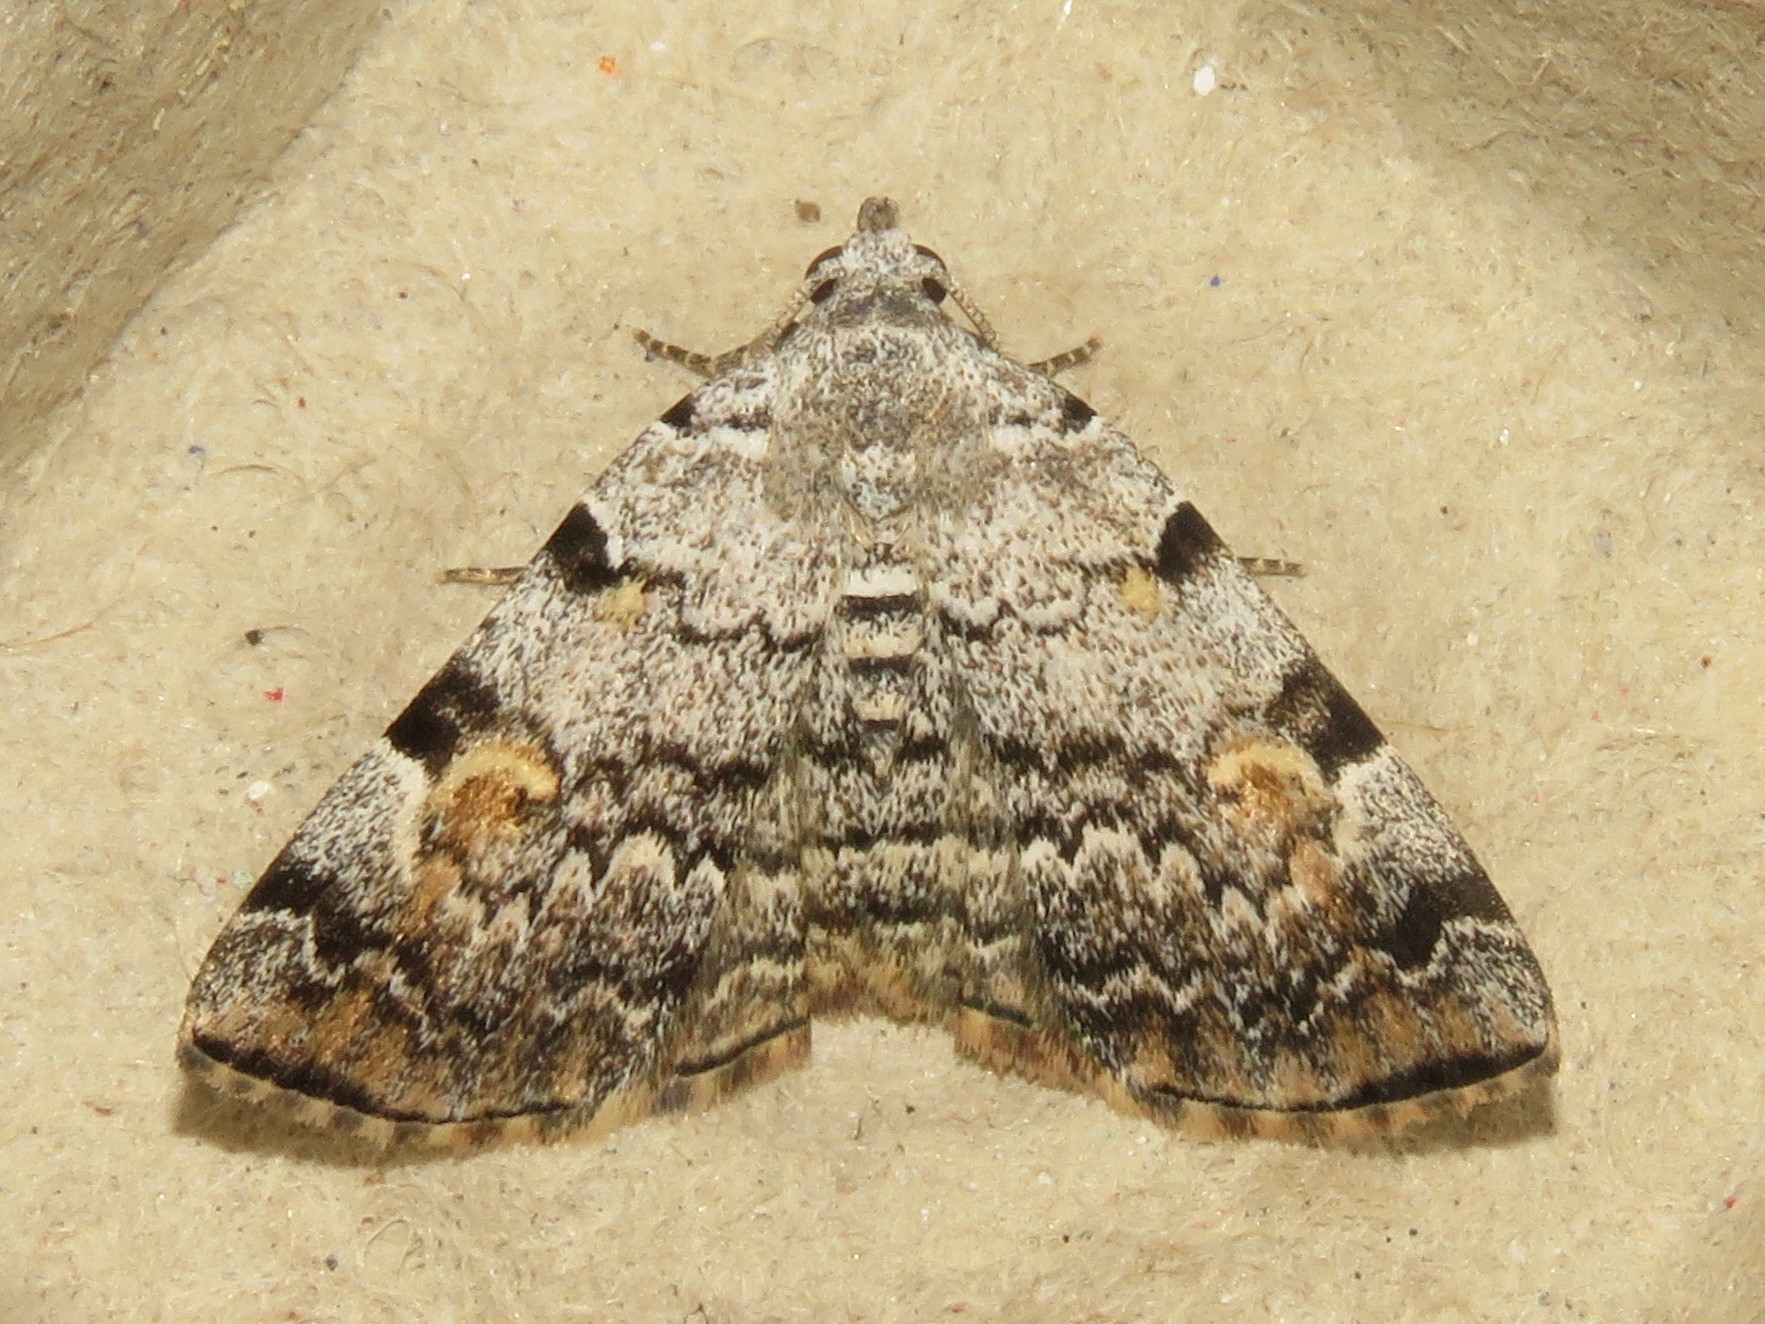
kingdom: Animalia
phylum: Arthropoda
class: Insecta
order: Lepidoptera
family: Erebidae
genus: Idia
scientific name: Idia americalis
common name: American idia moth
